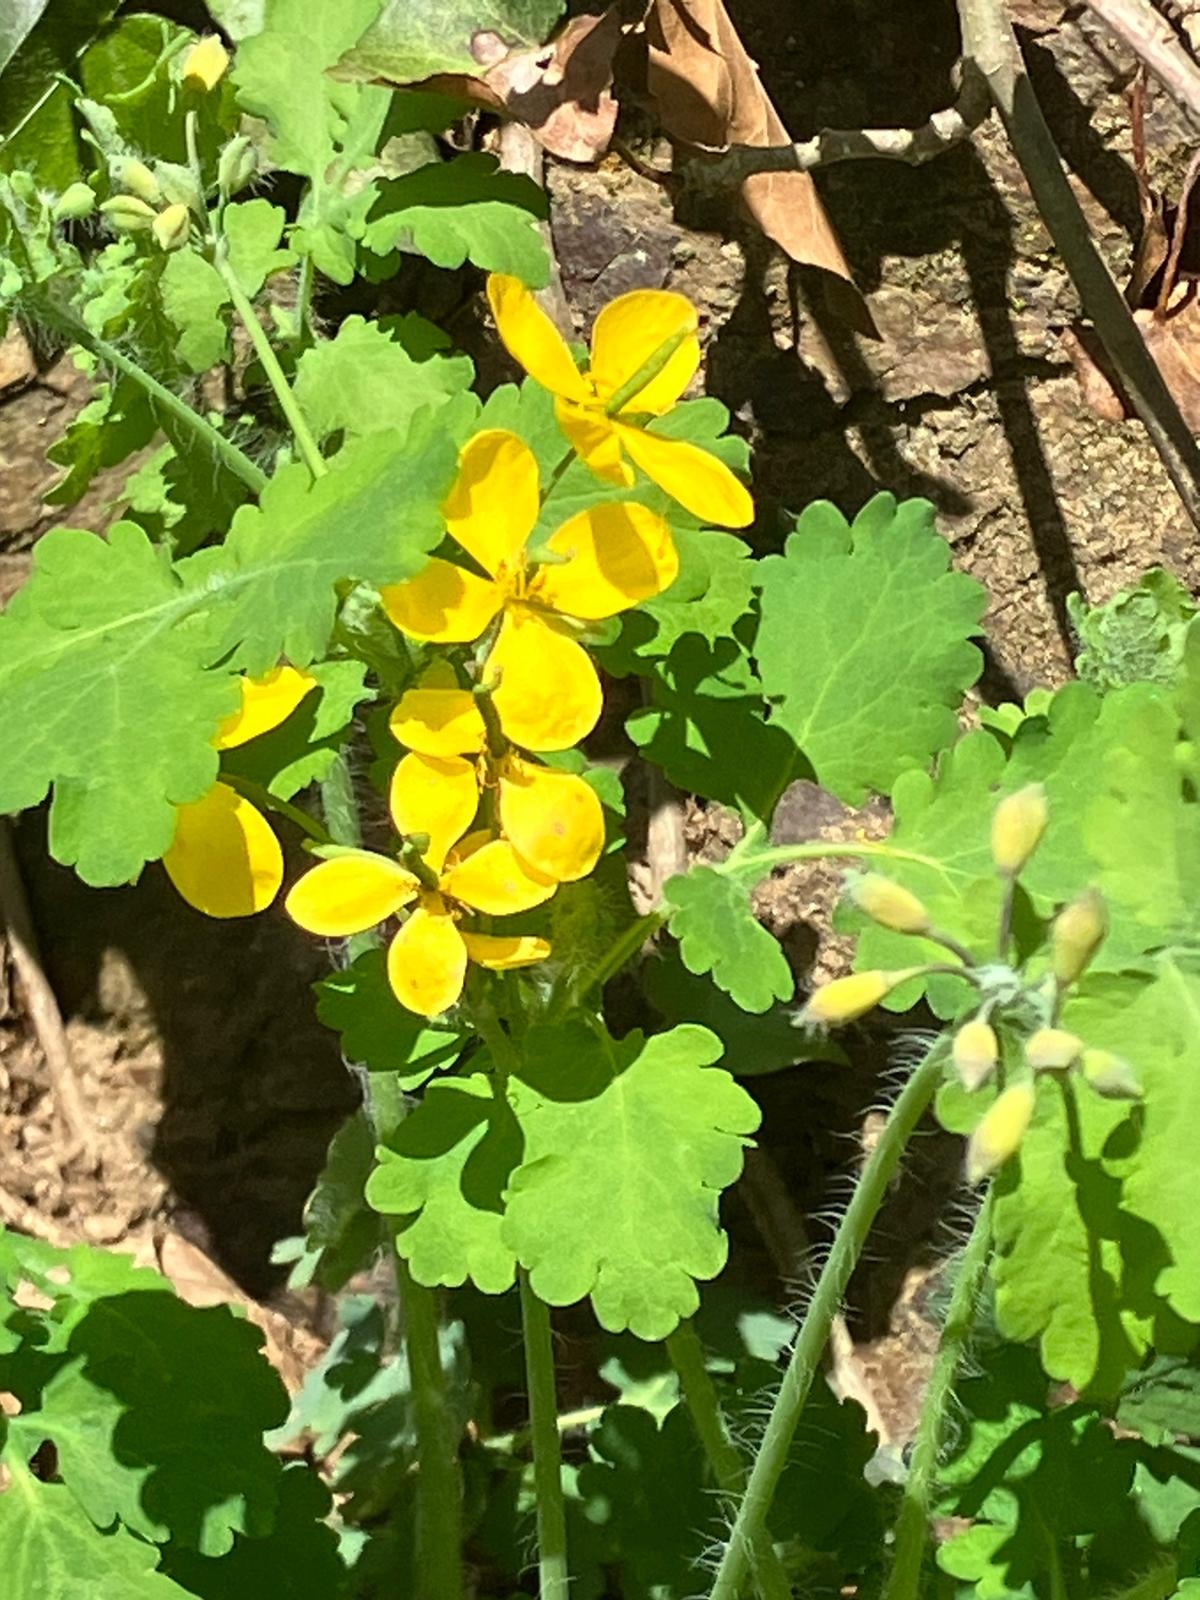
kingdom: Plantae
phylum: Tracheophyta
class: Magnoliopsida
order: Ranunculales
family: Papaveraceae
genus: Chelidonium
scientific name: Chelidonium majus
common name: Greater celandine
